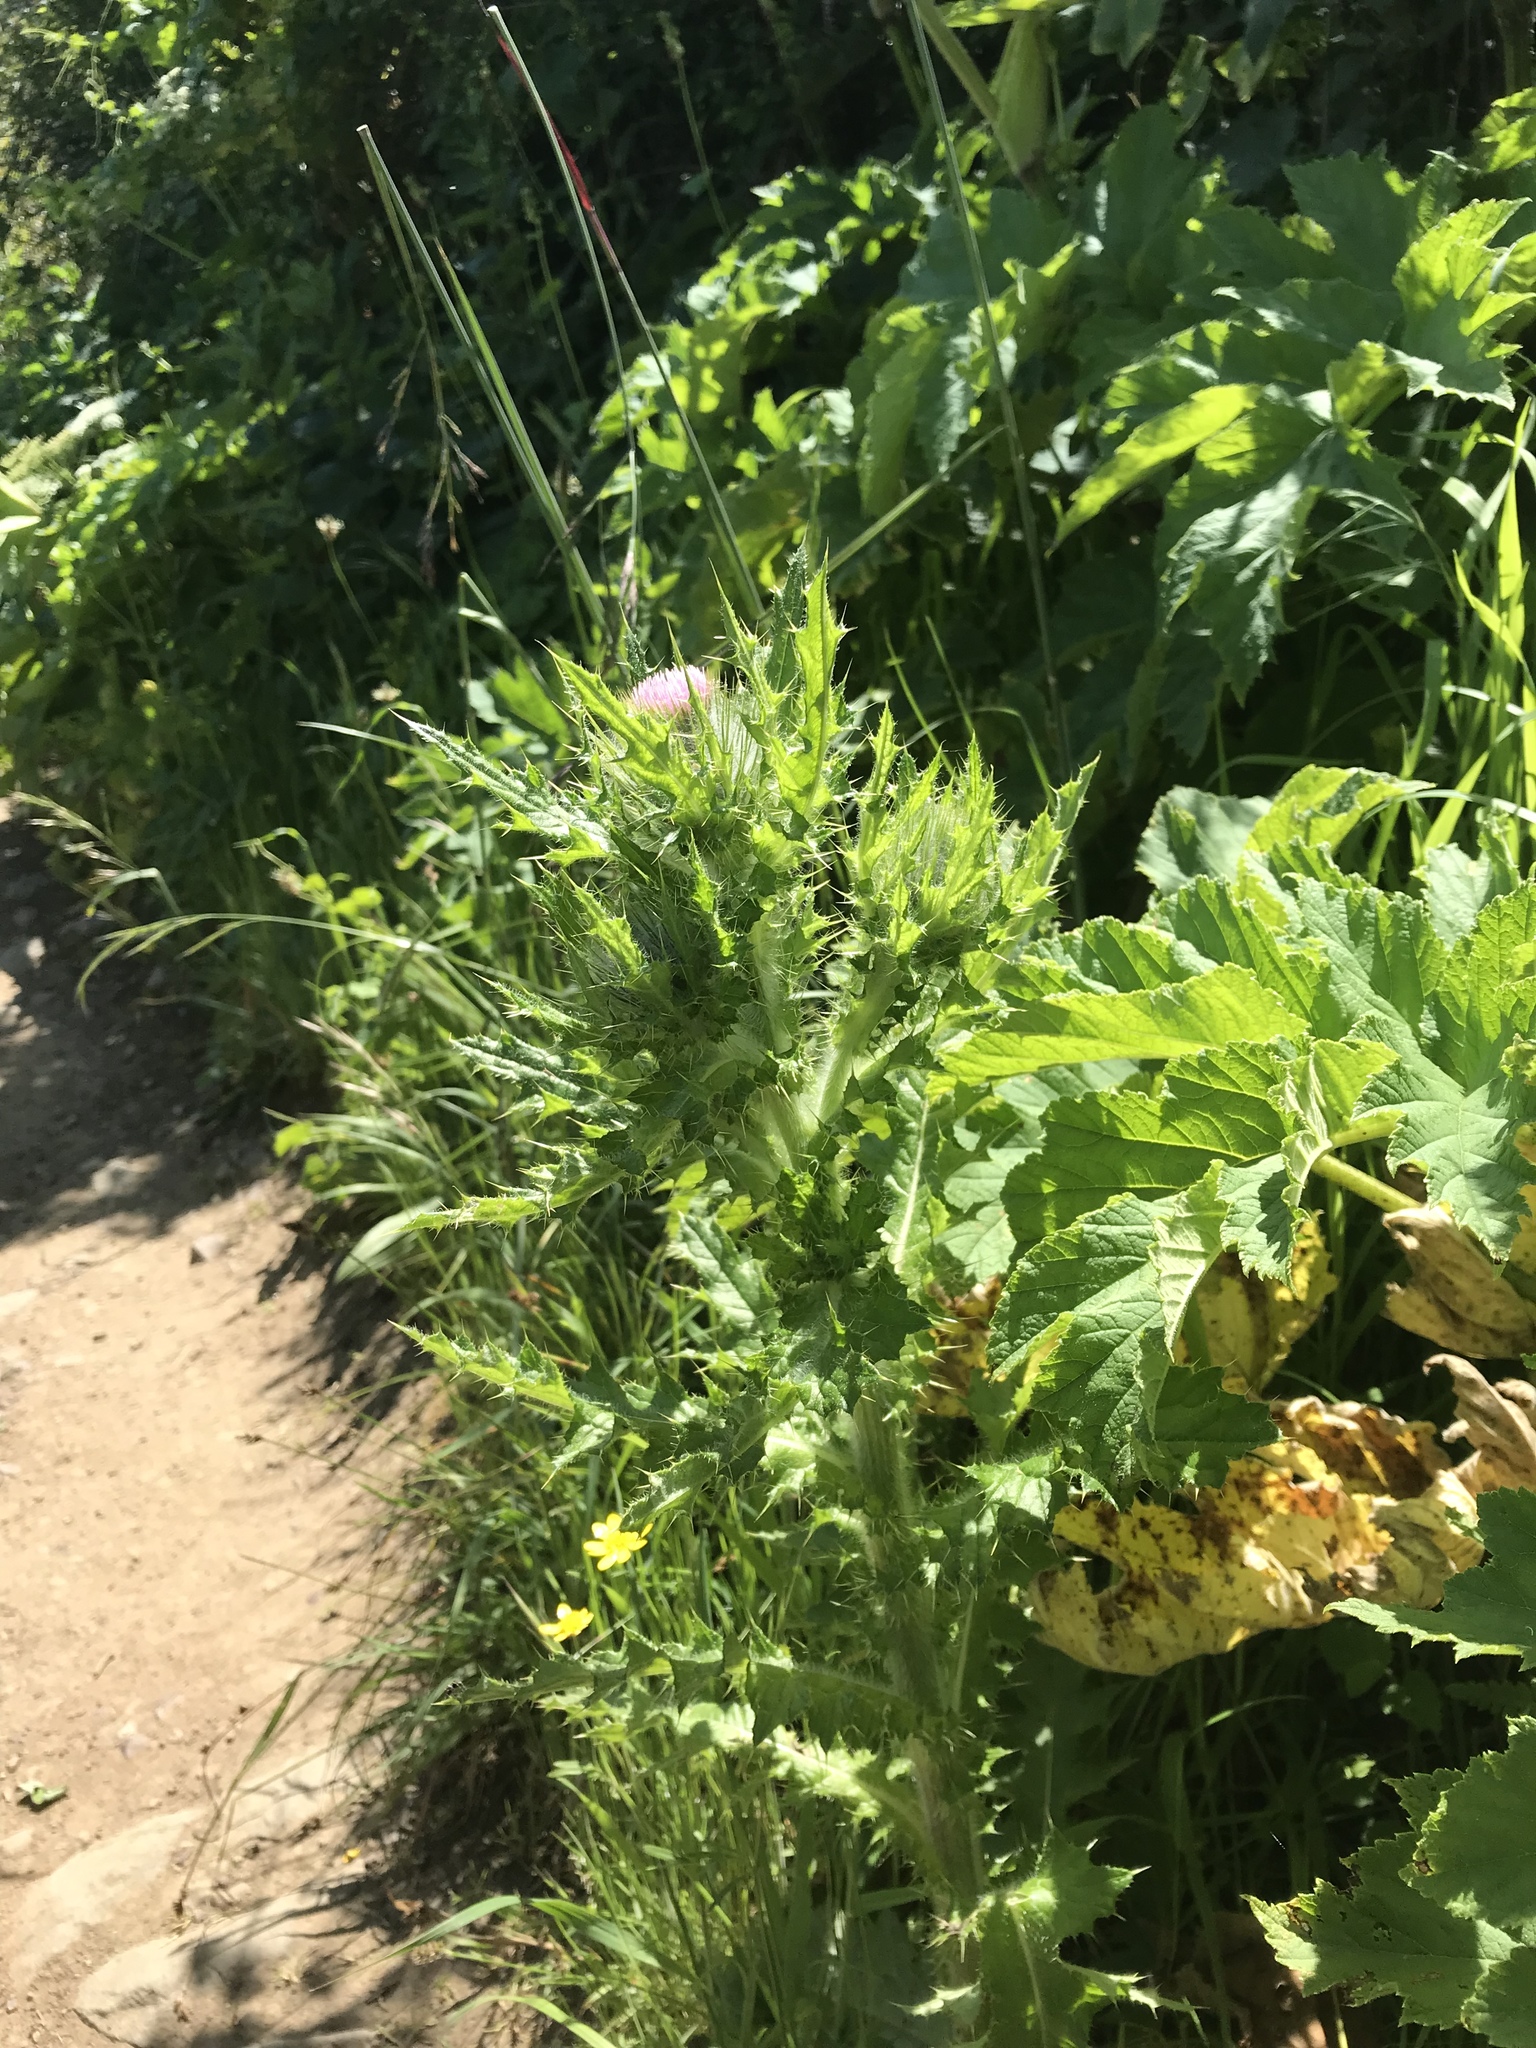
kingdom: Plantae
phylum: Tracheophyta
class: Magnoliopsida
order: Asterales
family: Asteraceae
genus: Cirsium
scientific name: Cirsium brevistylum
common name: Indian thistle
